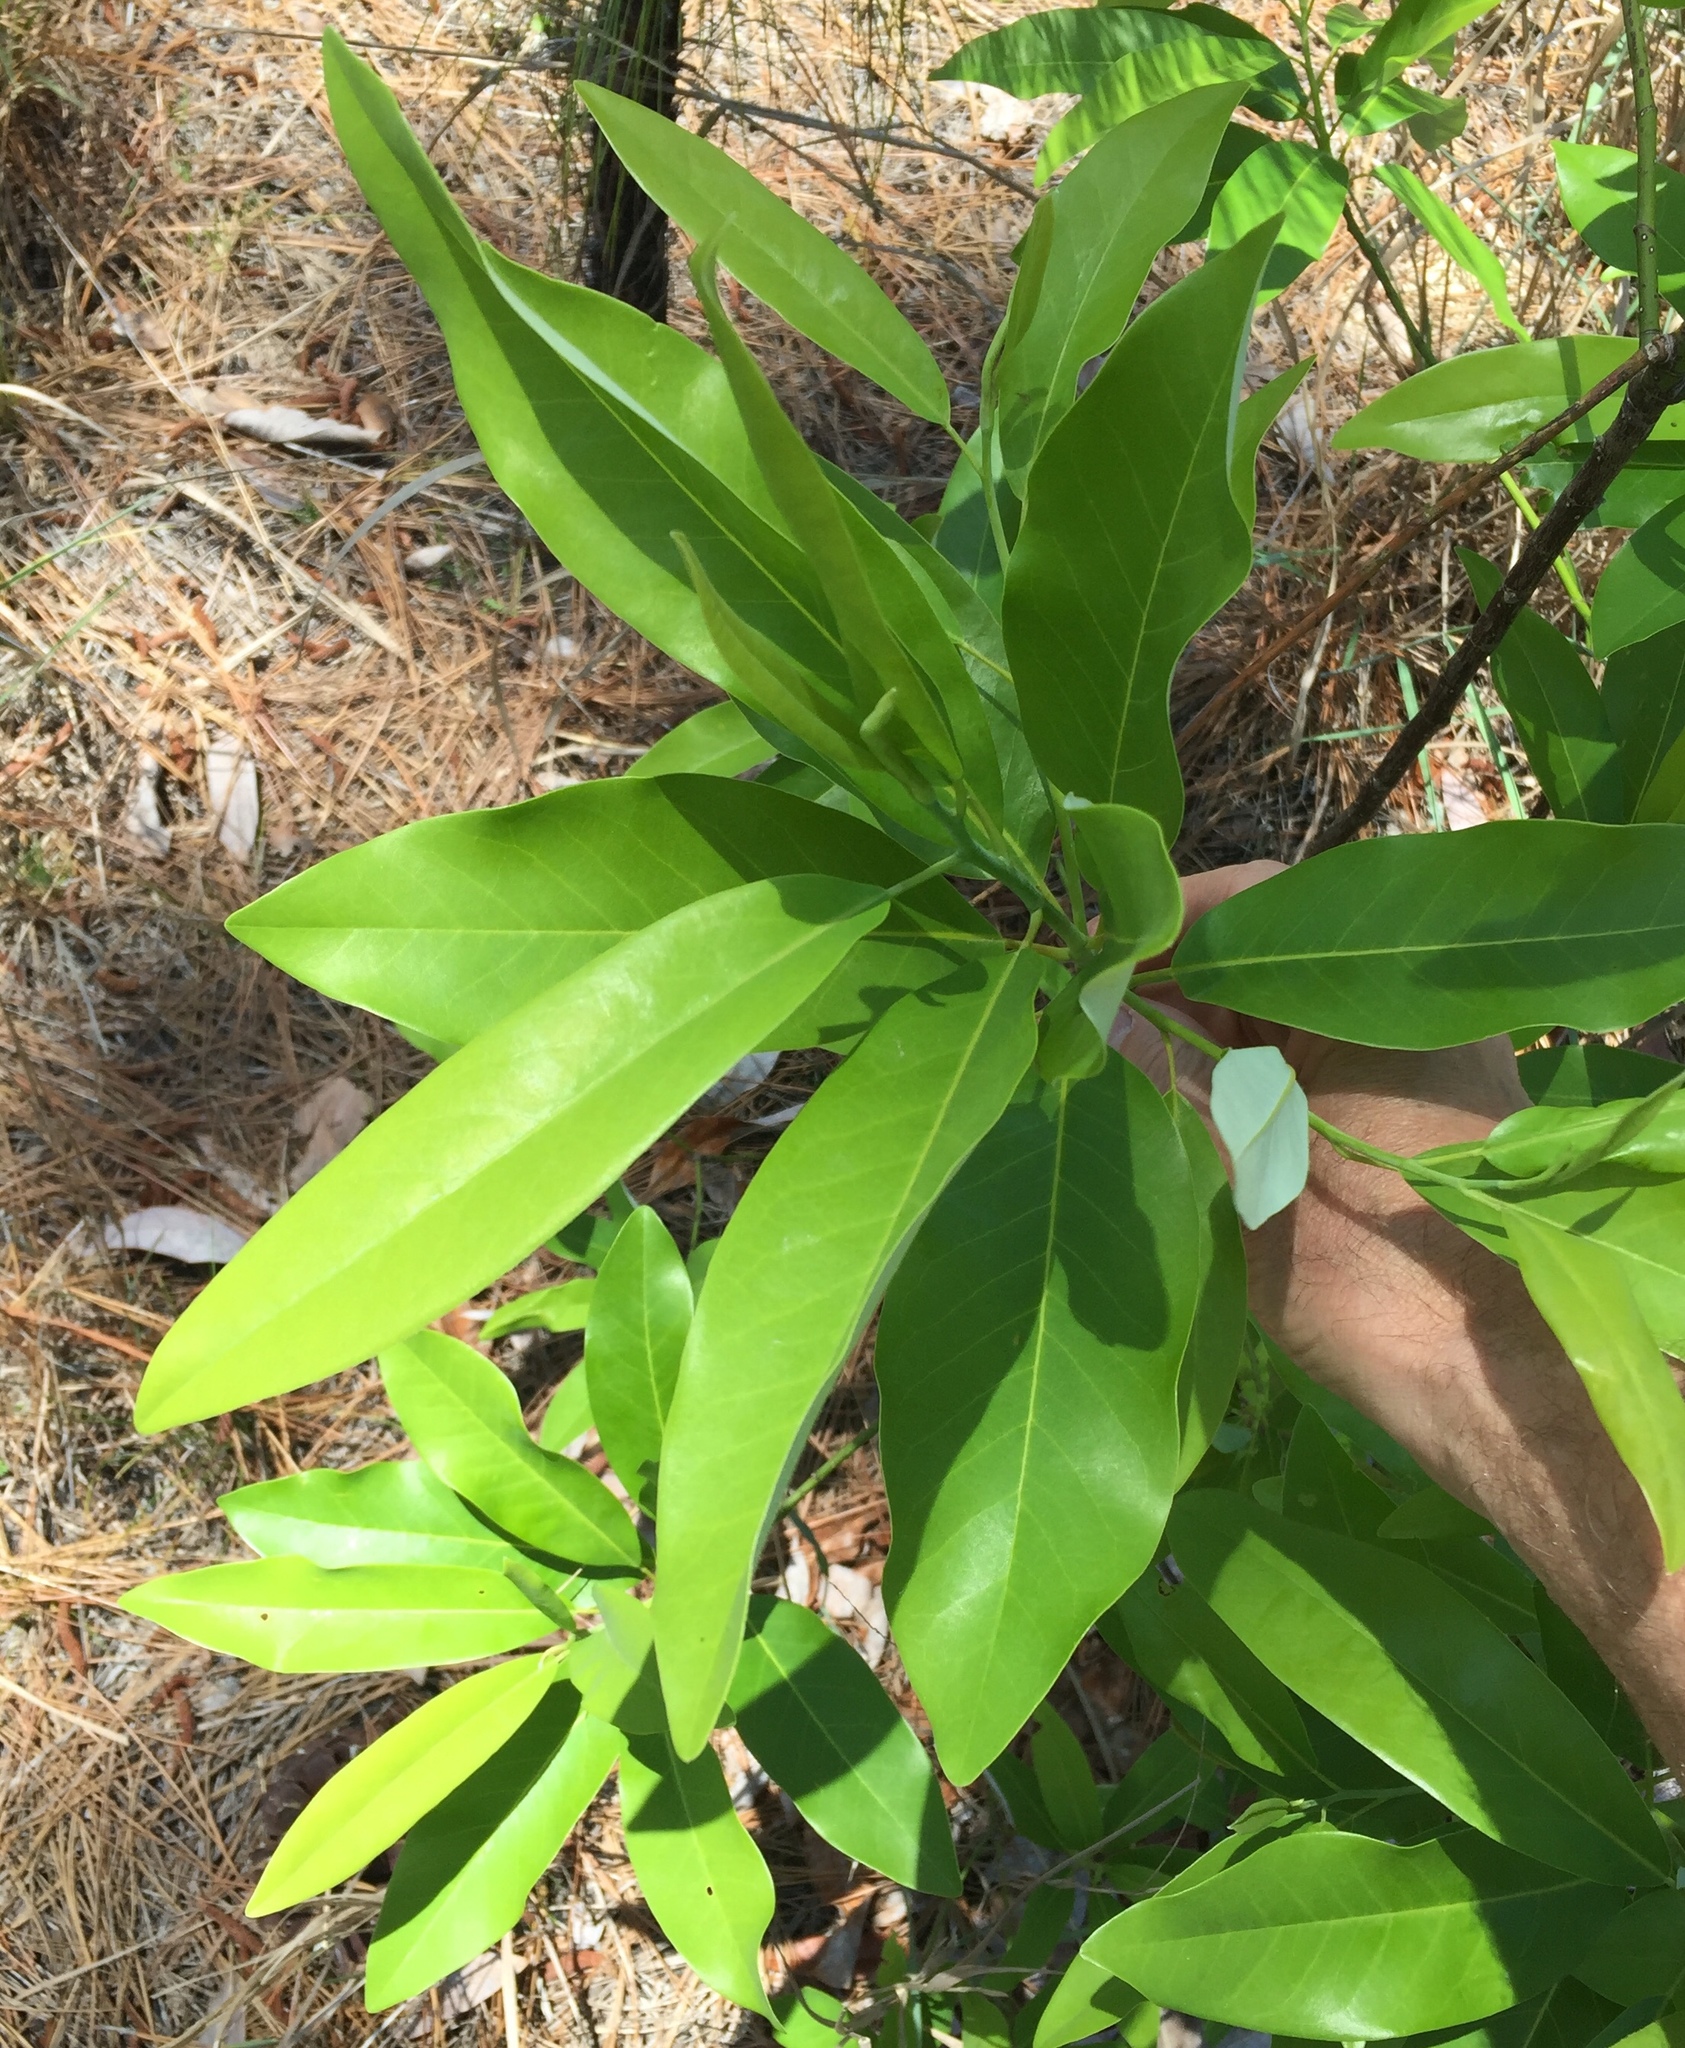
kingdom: Plantae
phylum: Tracheophyta
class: Magnoliopsida
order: Magnoliales
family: Magnoliaceae
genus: Magnolia
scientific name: Magnolia virginiana
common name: Swamp bay
